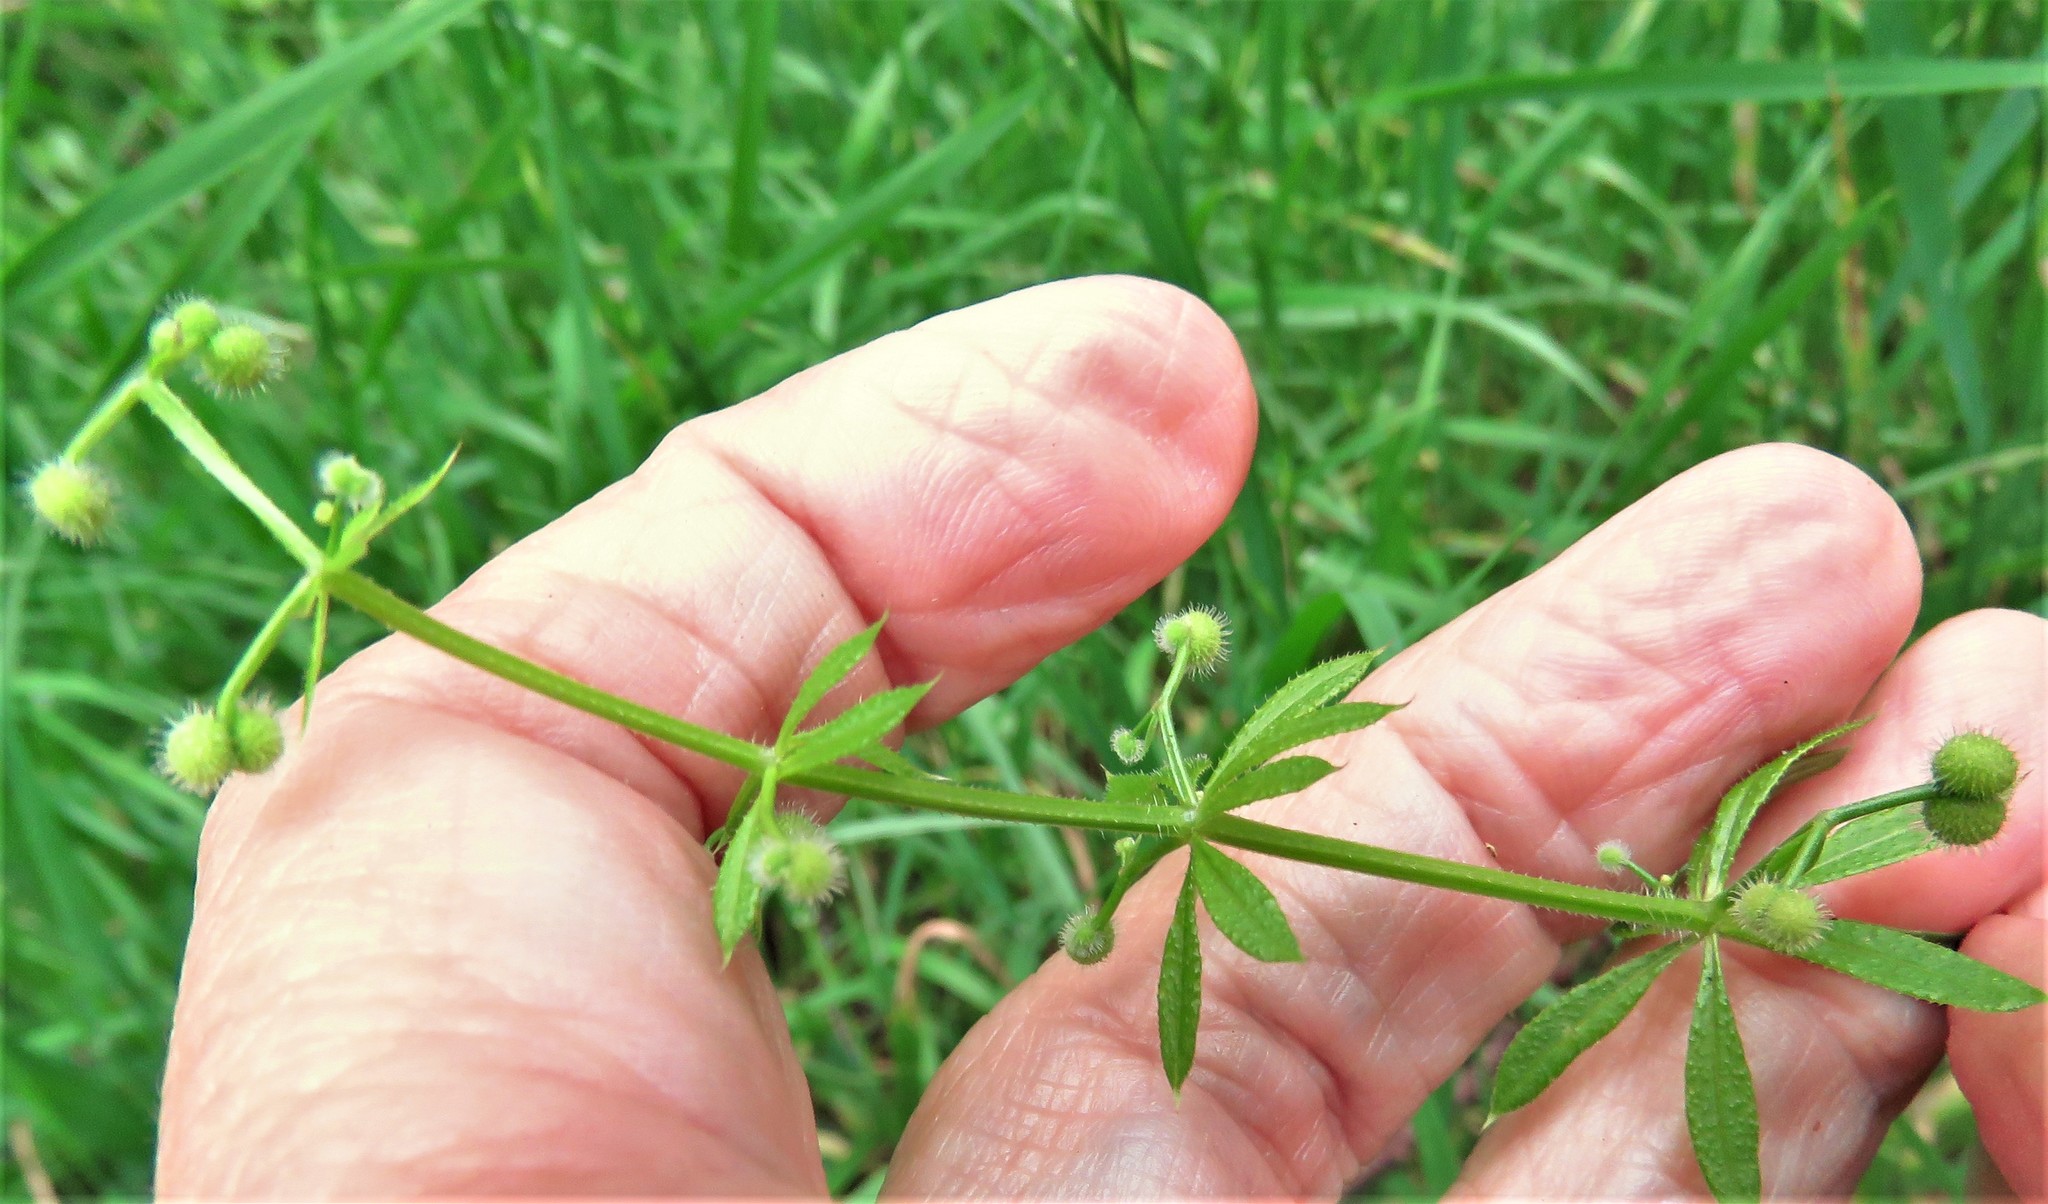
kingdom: Plantae
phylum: Tracheophyta
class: Magnoliopsida
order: Gentianales
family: Rubiaceae
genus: Galium
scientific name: Galium aparine
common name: Cleavers
